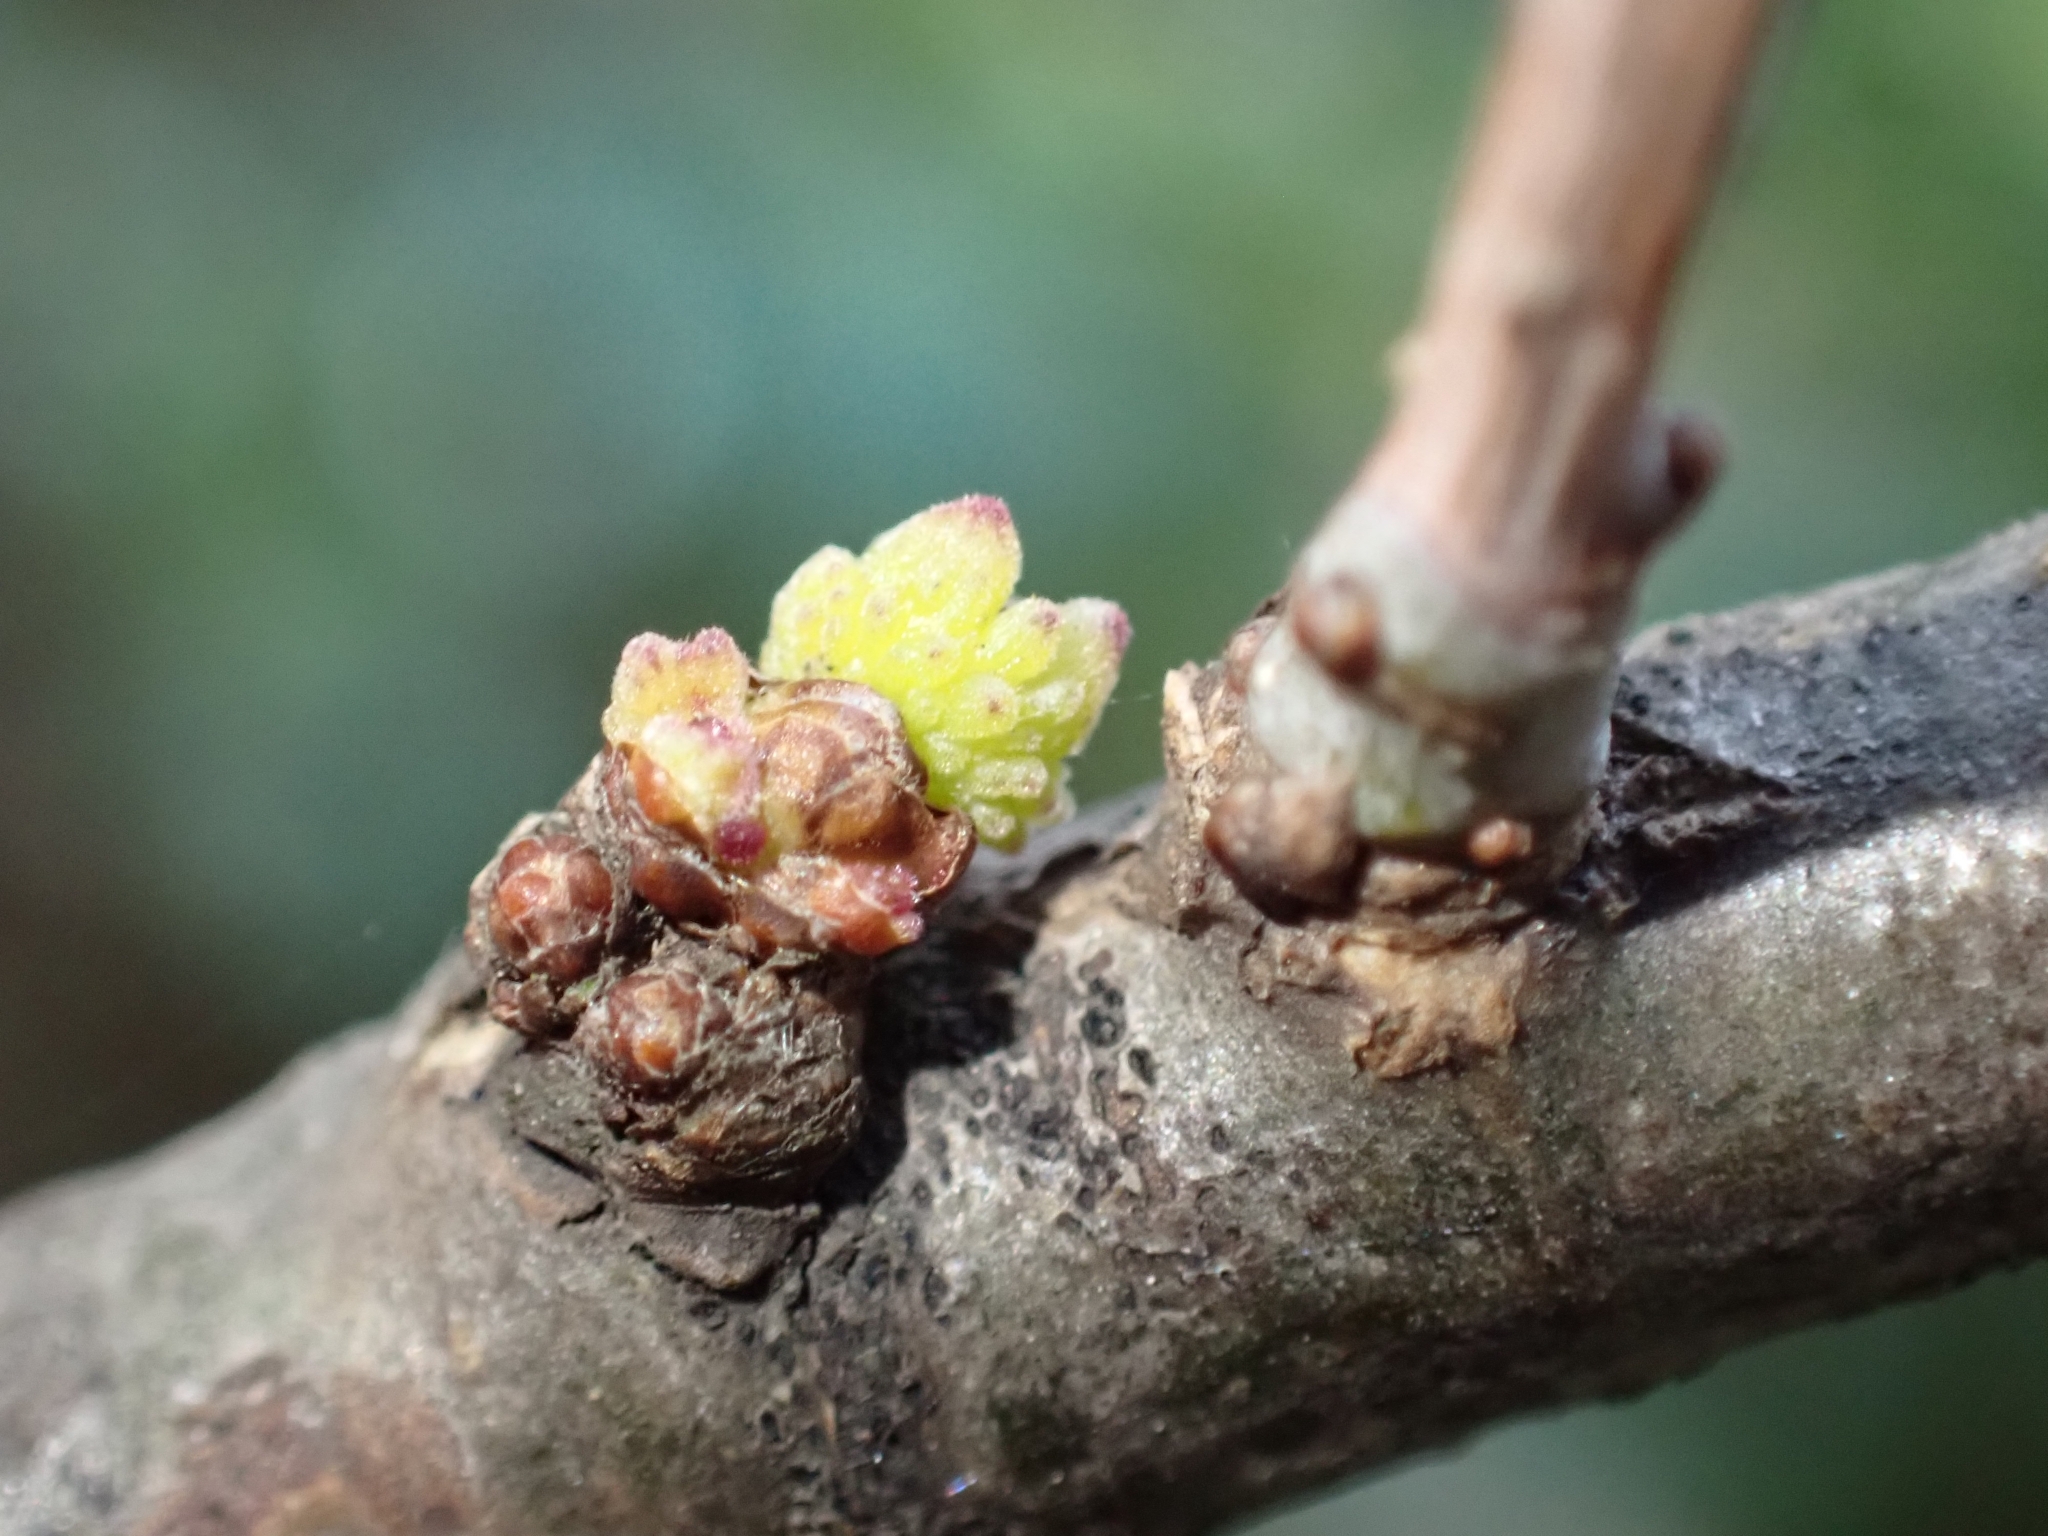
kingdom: Animalia
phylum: Arthropoda
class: Insecta
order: Hymenoptera
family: Cynipidae
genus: Andricus
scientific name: Andricus gemmeus
